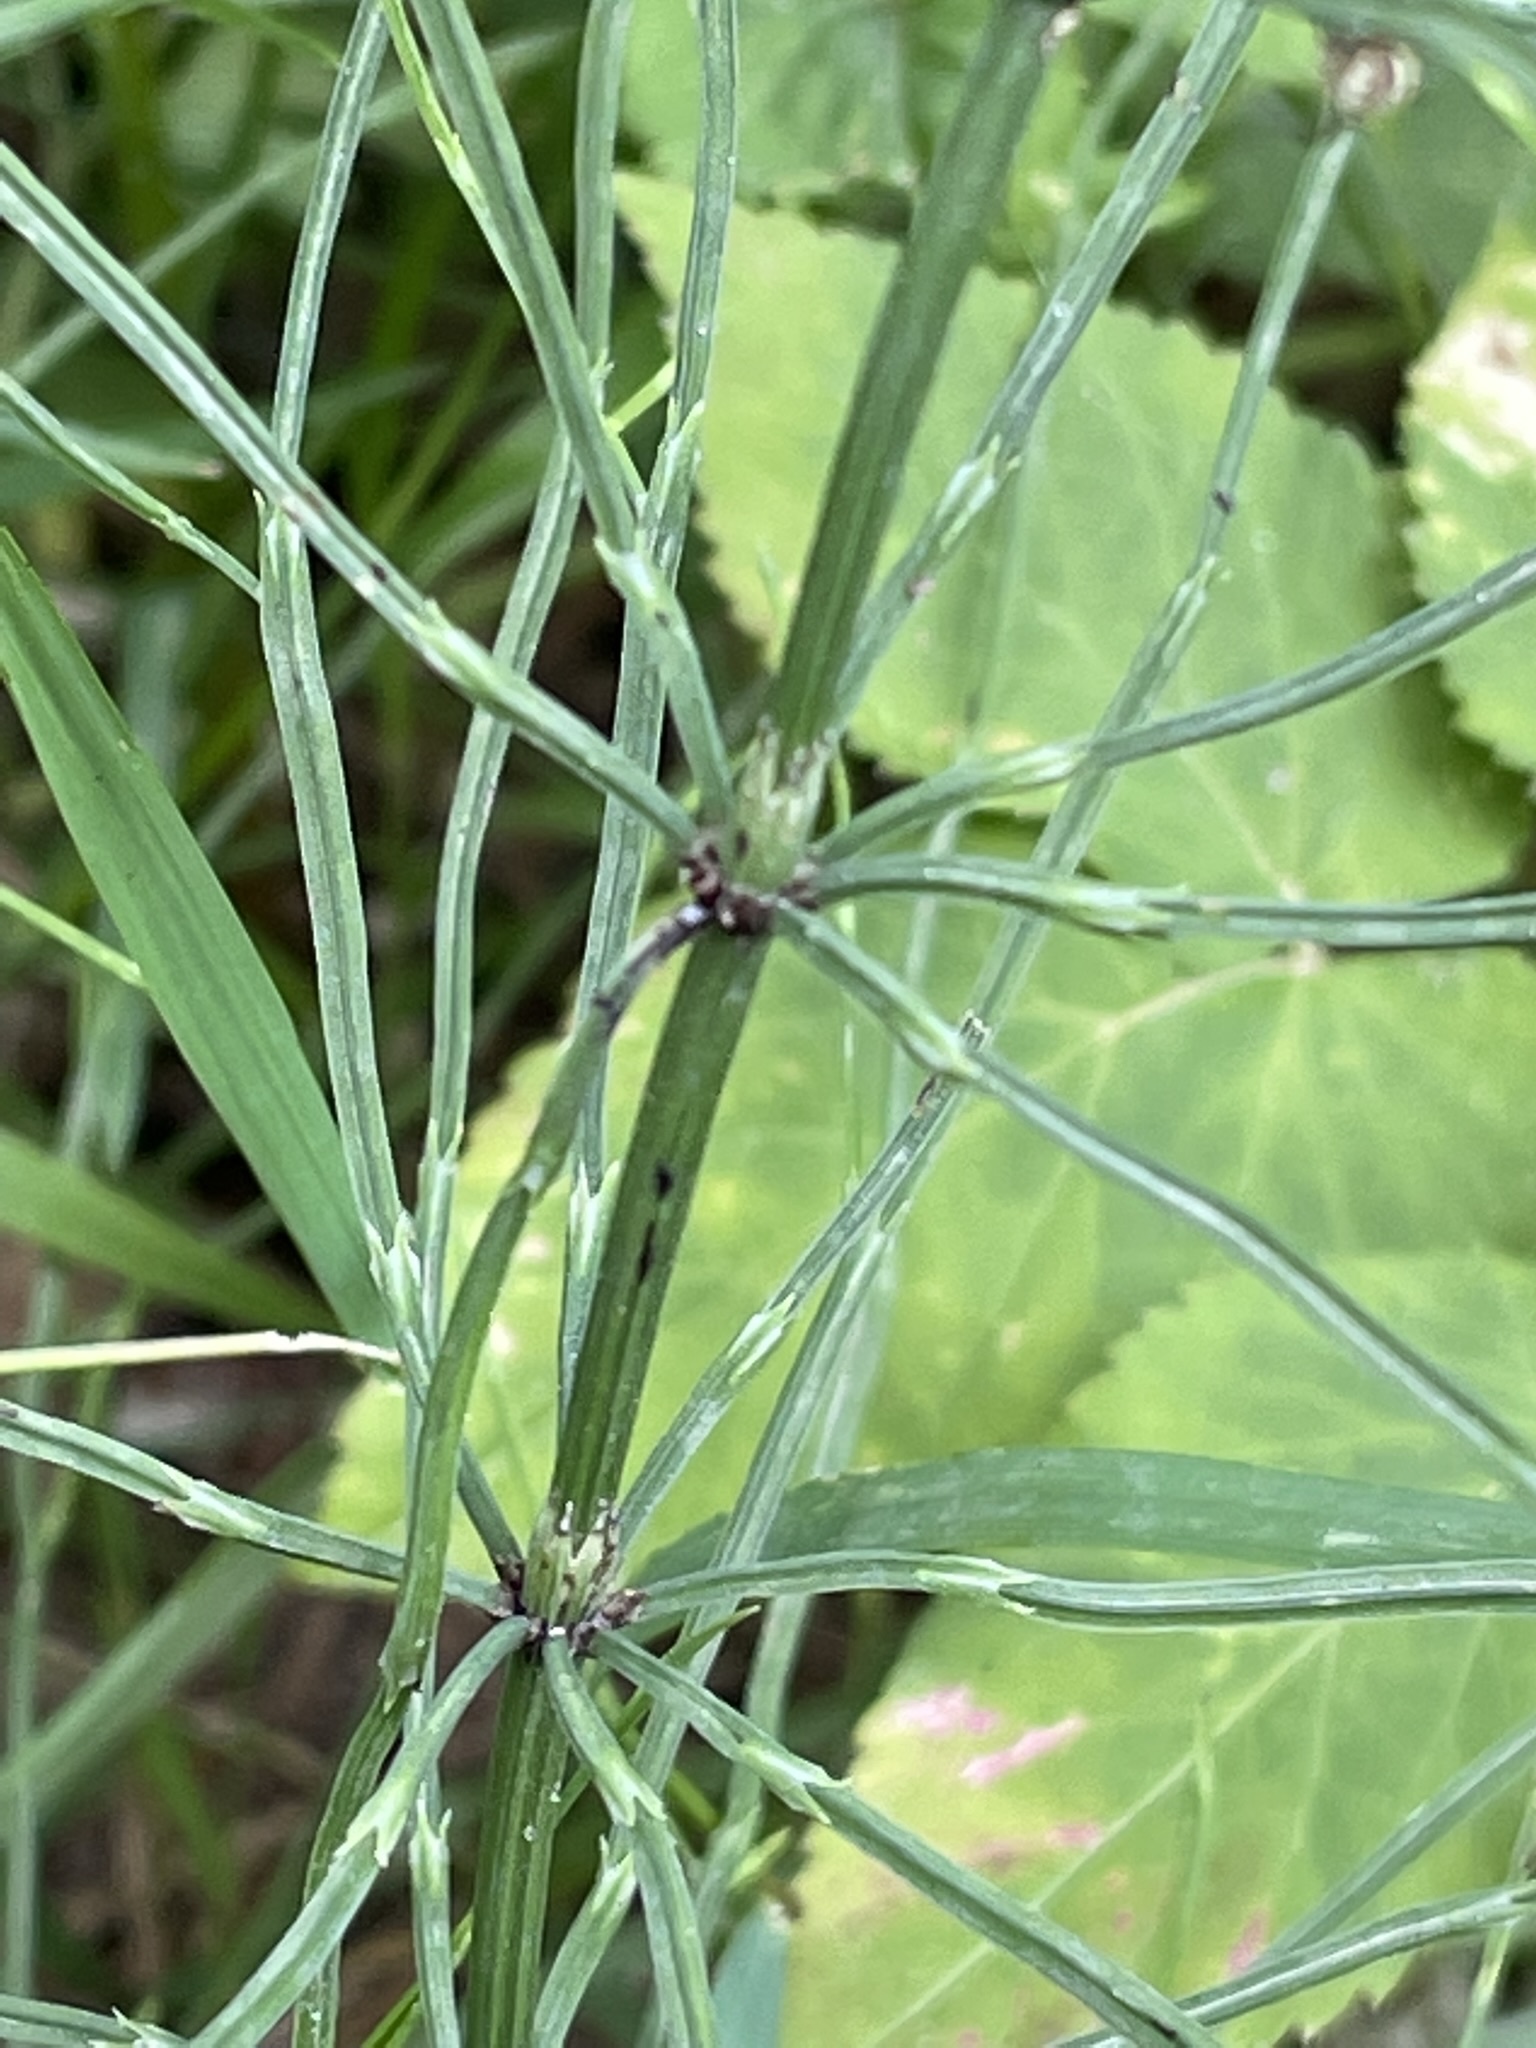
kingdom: Plantae
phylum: Tracheophyta
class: Polypodiopsida
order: Equisetales
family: Equisetaceae
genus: Equisetum
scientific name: Equisetum arvense
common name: Field horsetail
